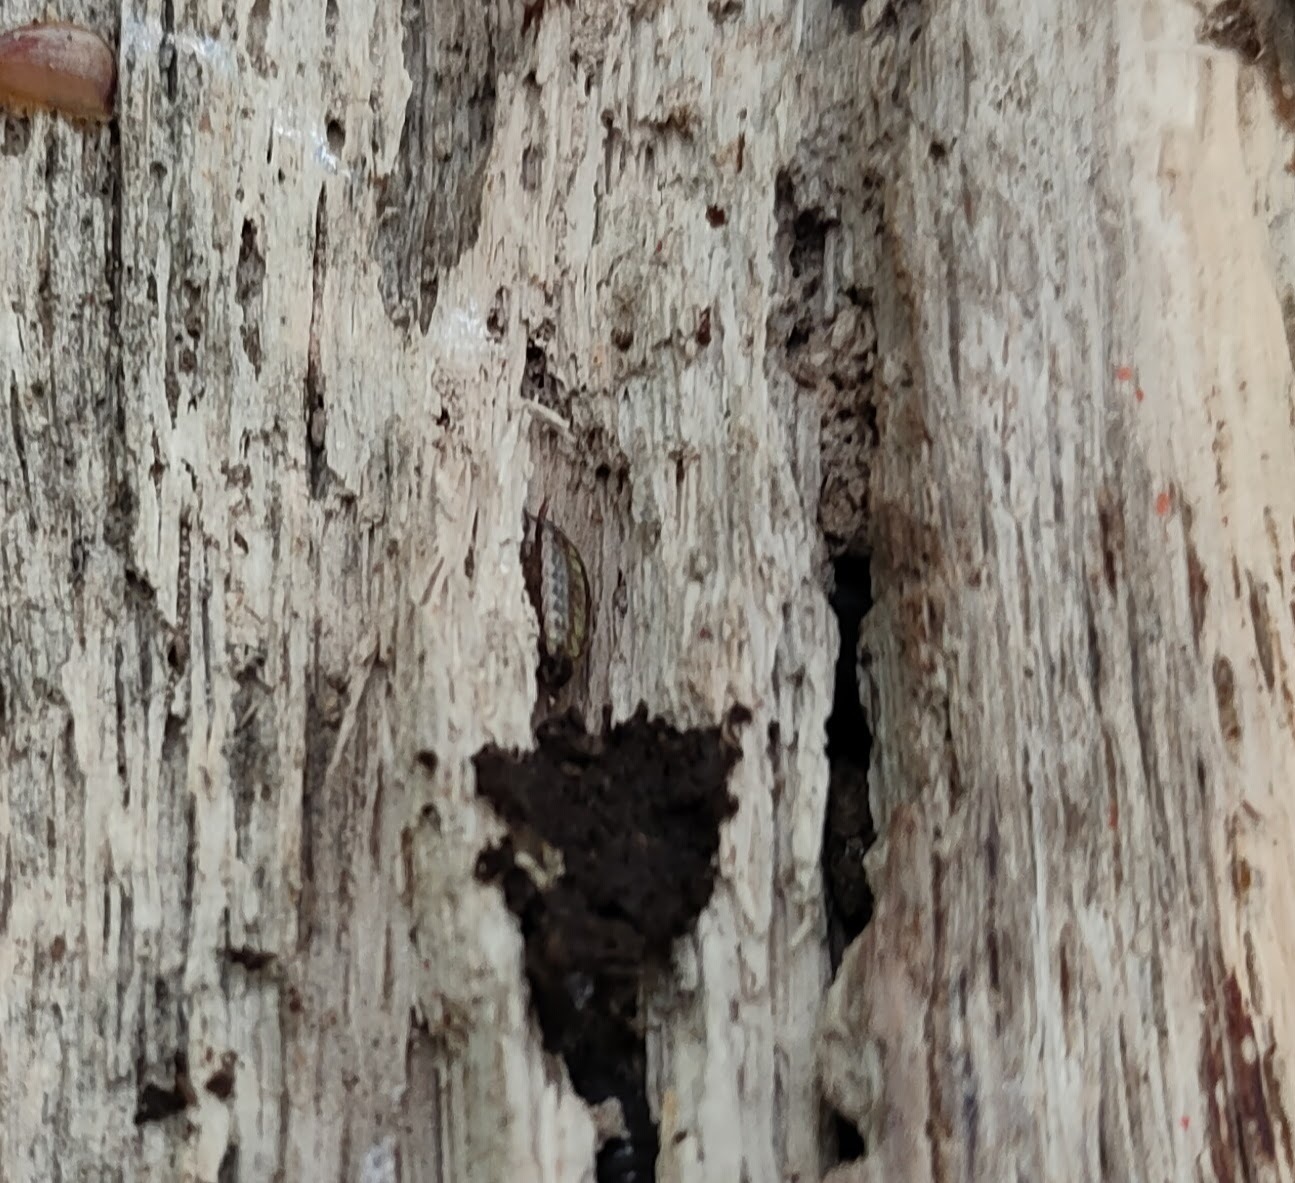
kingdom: Animalia
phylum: Arthropoda
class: Malacostraca
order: Isopoda
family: Philosciidae
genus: Philoscia
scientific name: Philoscia muscorum
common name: Common striped woodlouse
